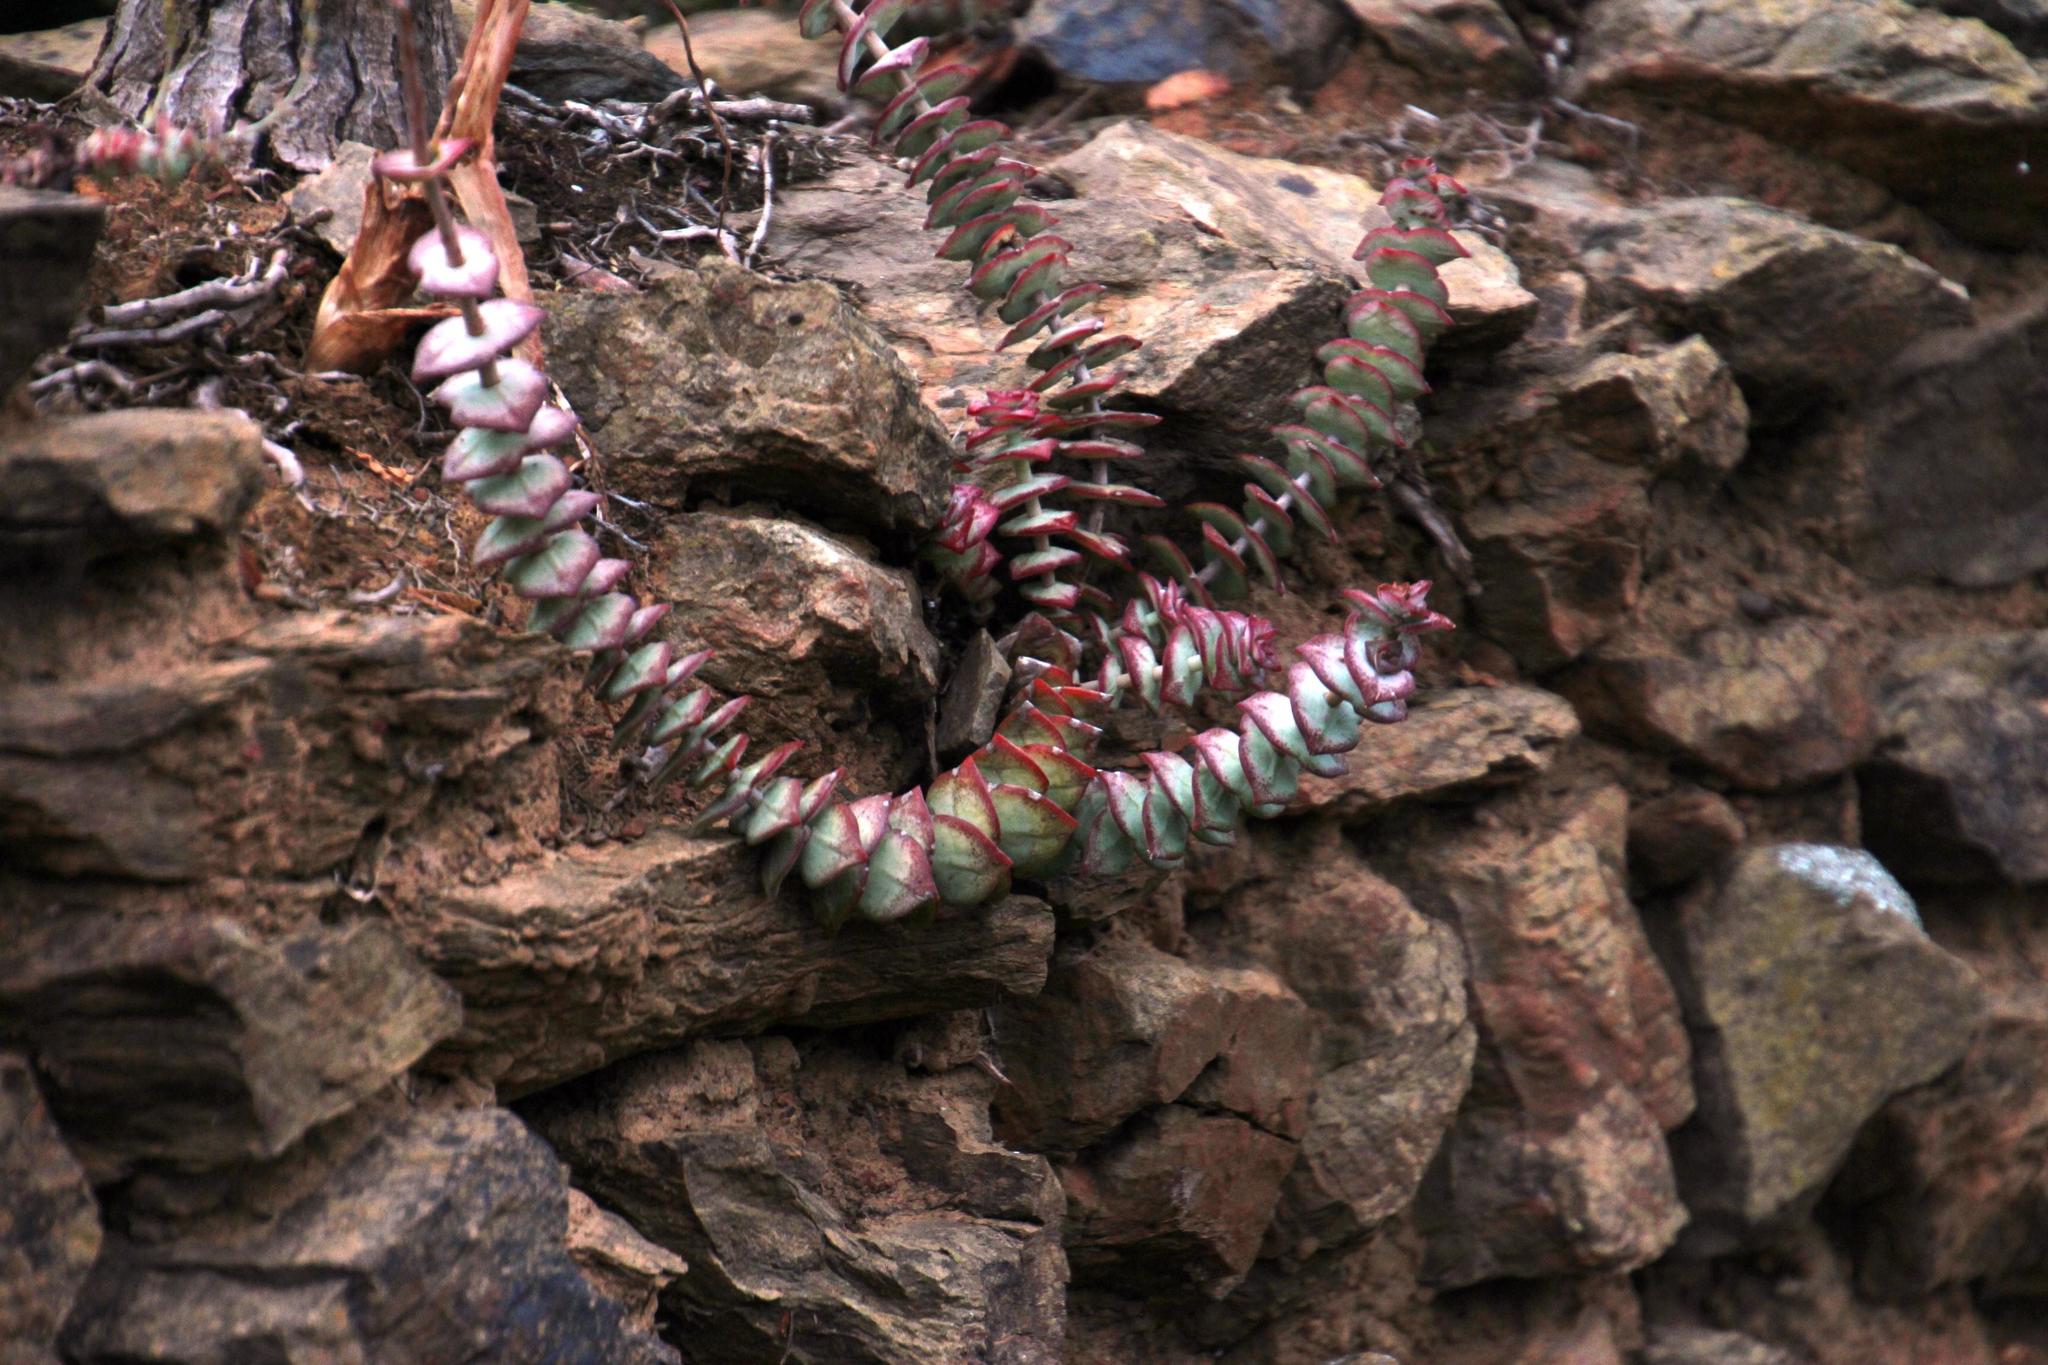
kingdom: Plantae
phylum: Tracheophyta
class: Magnoliopsida
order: Saxifragales
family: Crassulaceae
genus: Crassula
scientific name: Crassula perforata
